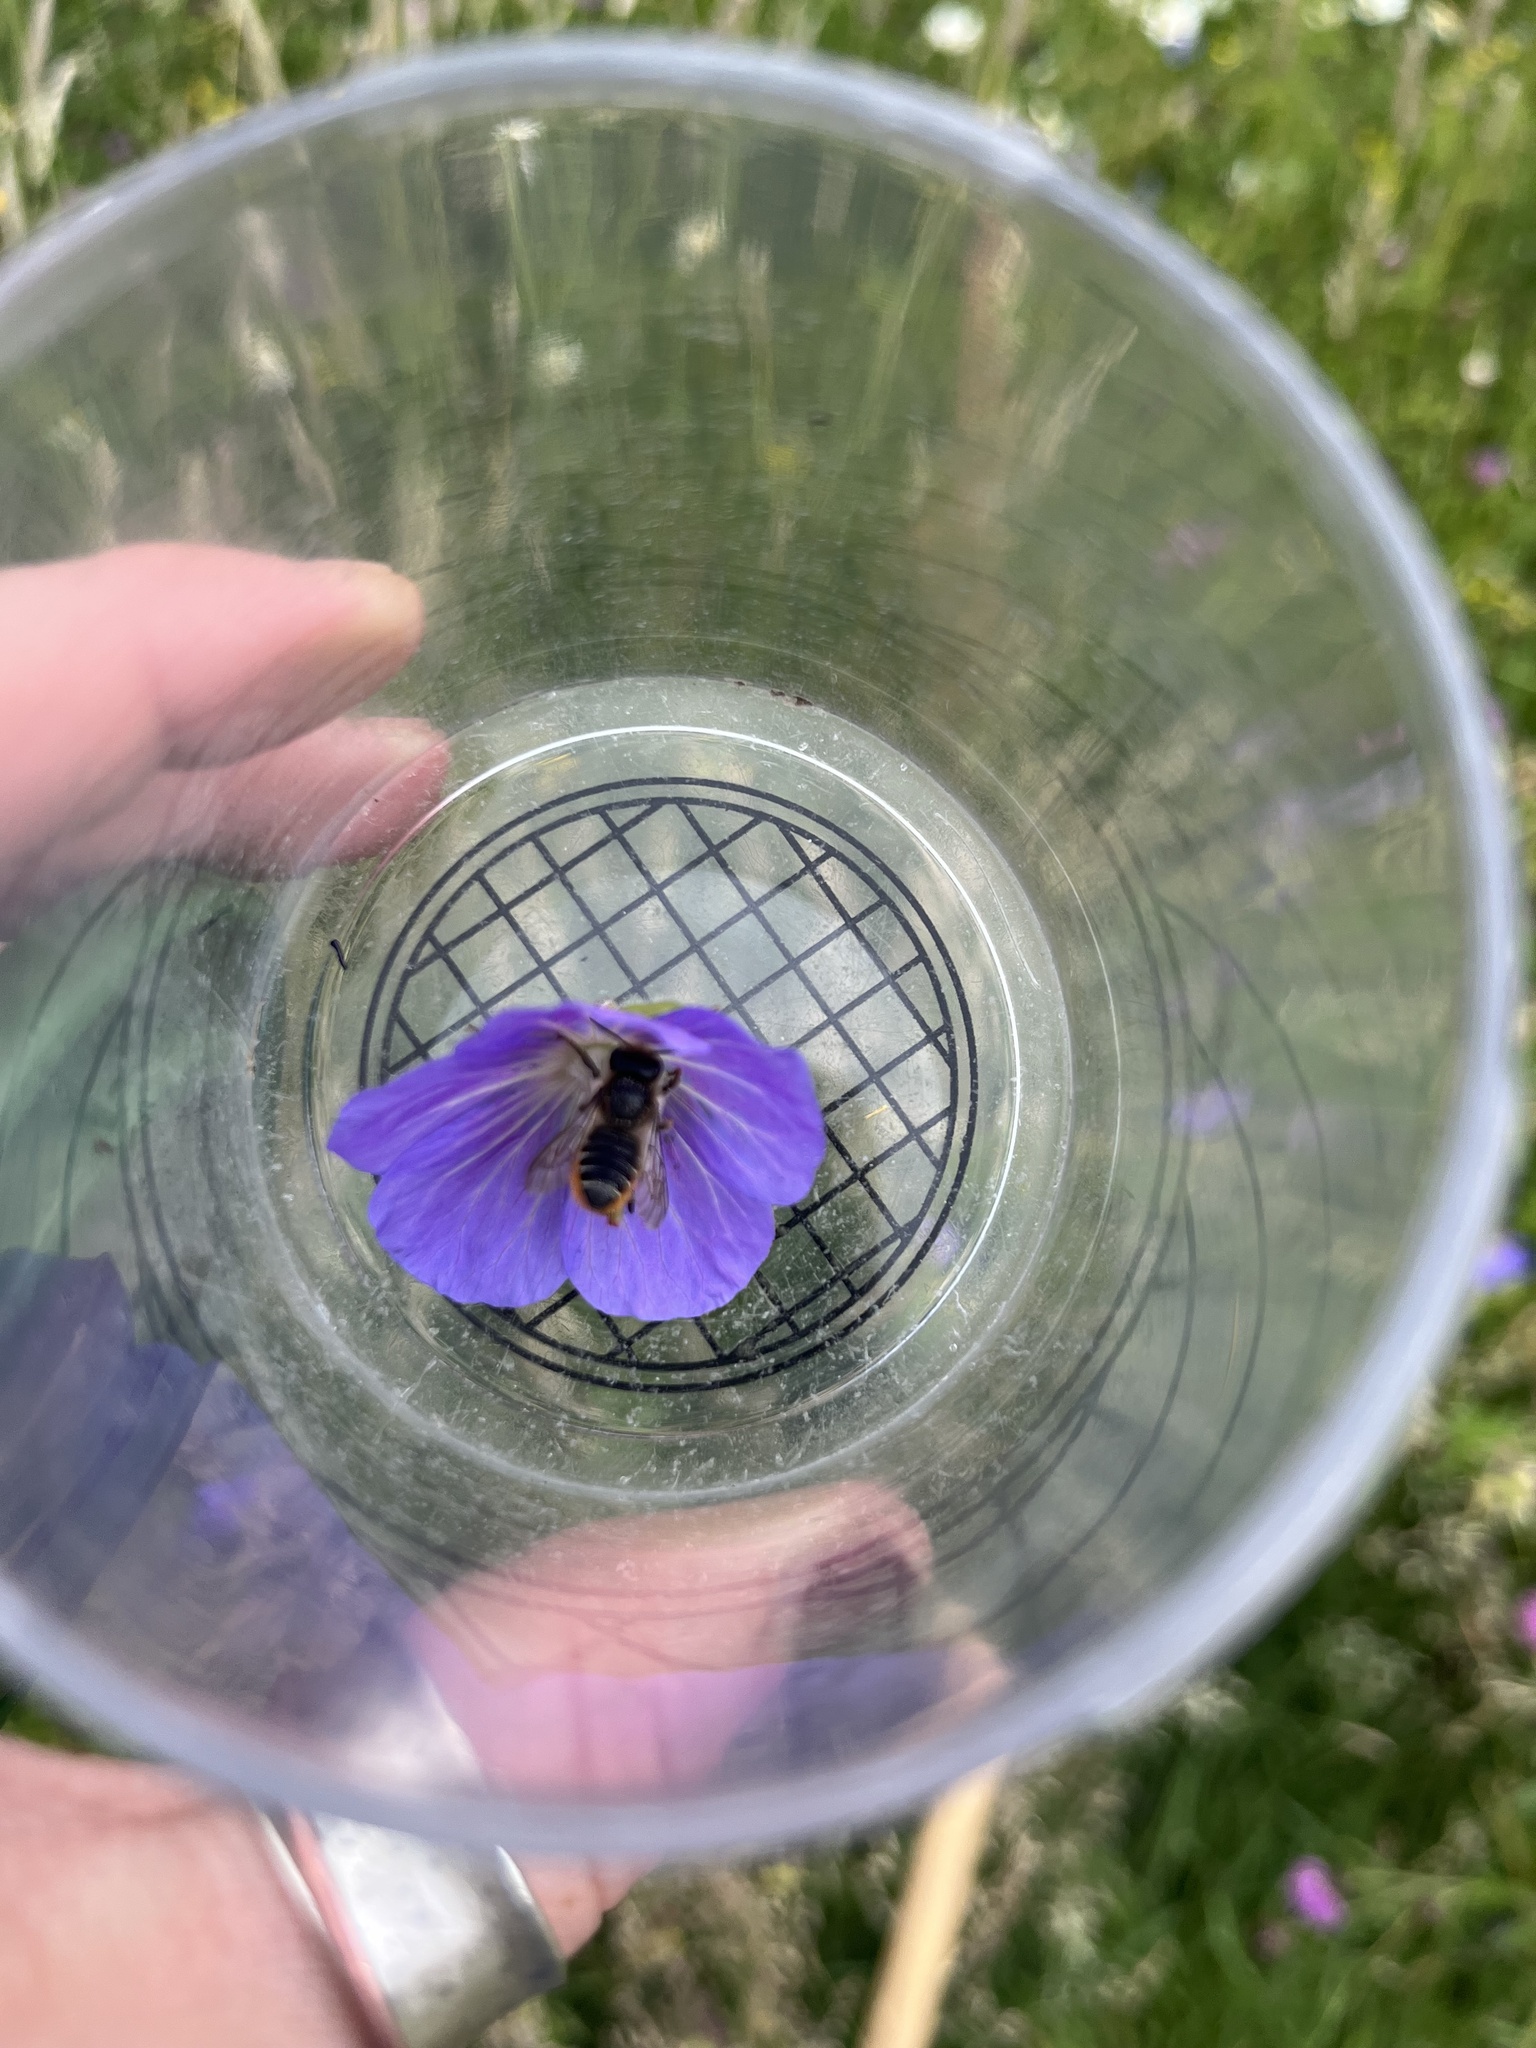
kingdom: Animalia
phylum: Arthropoda
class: Insecta
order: Hymenoptera
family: Megachilidae
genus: Megachile
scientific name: Megachile centuncularis
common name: Patchwork leafcutter bee
